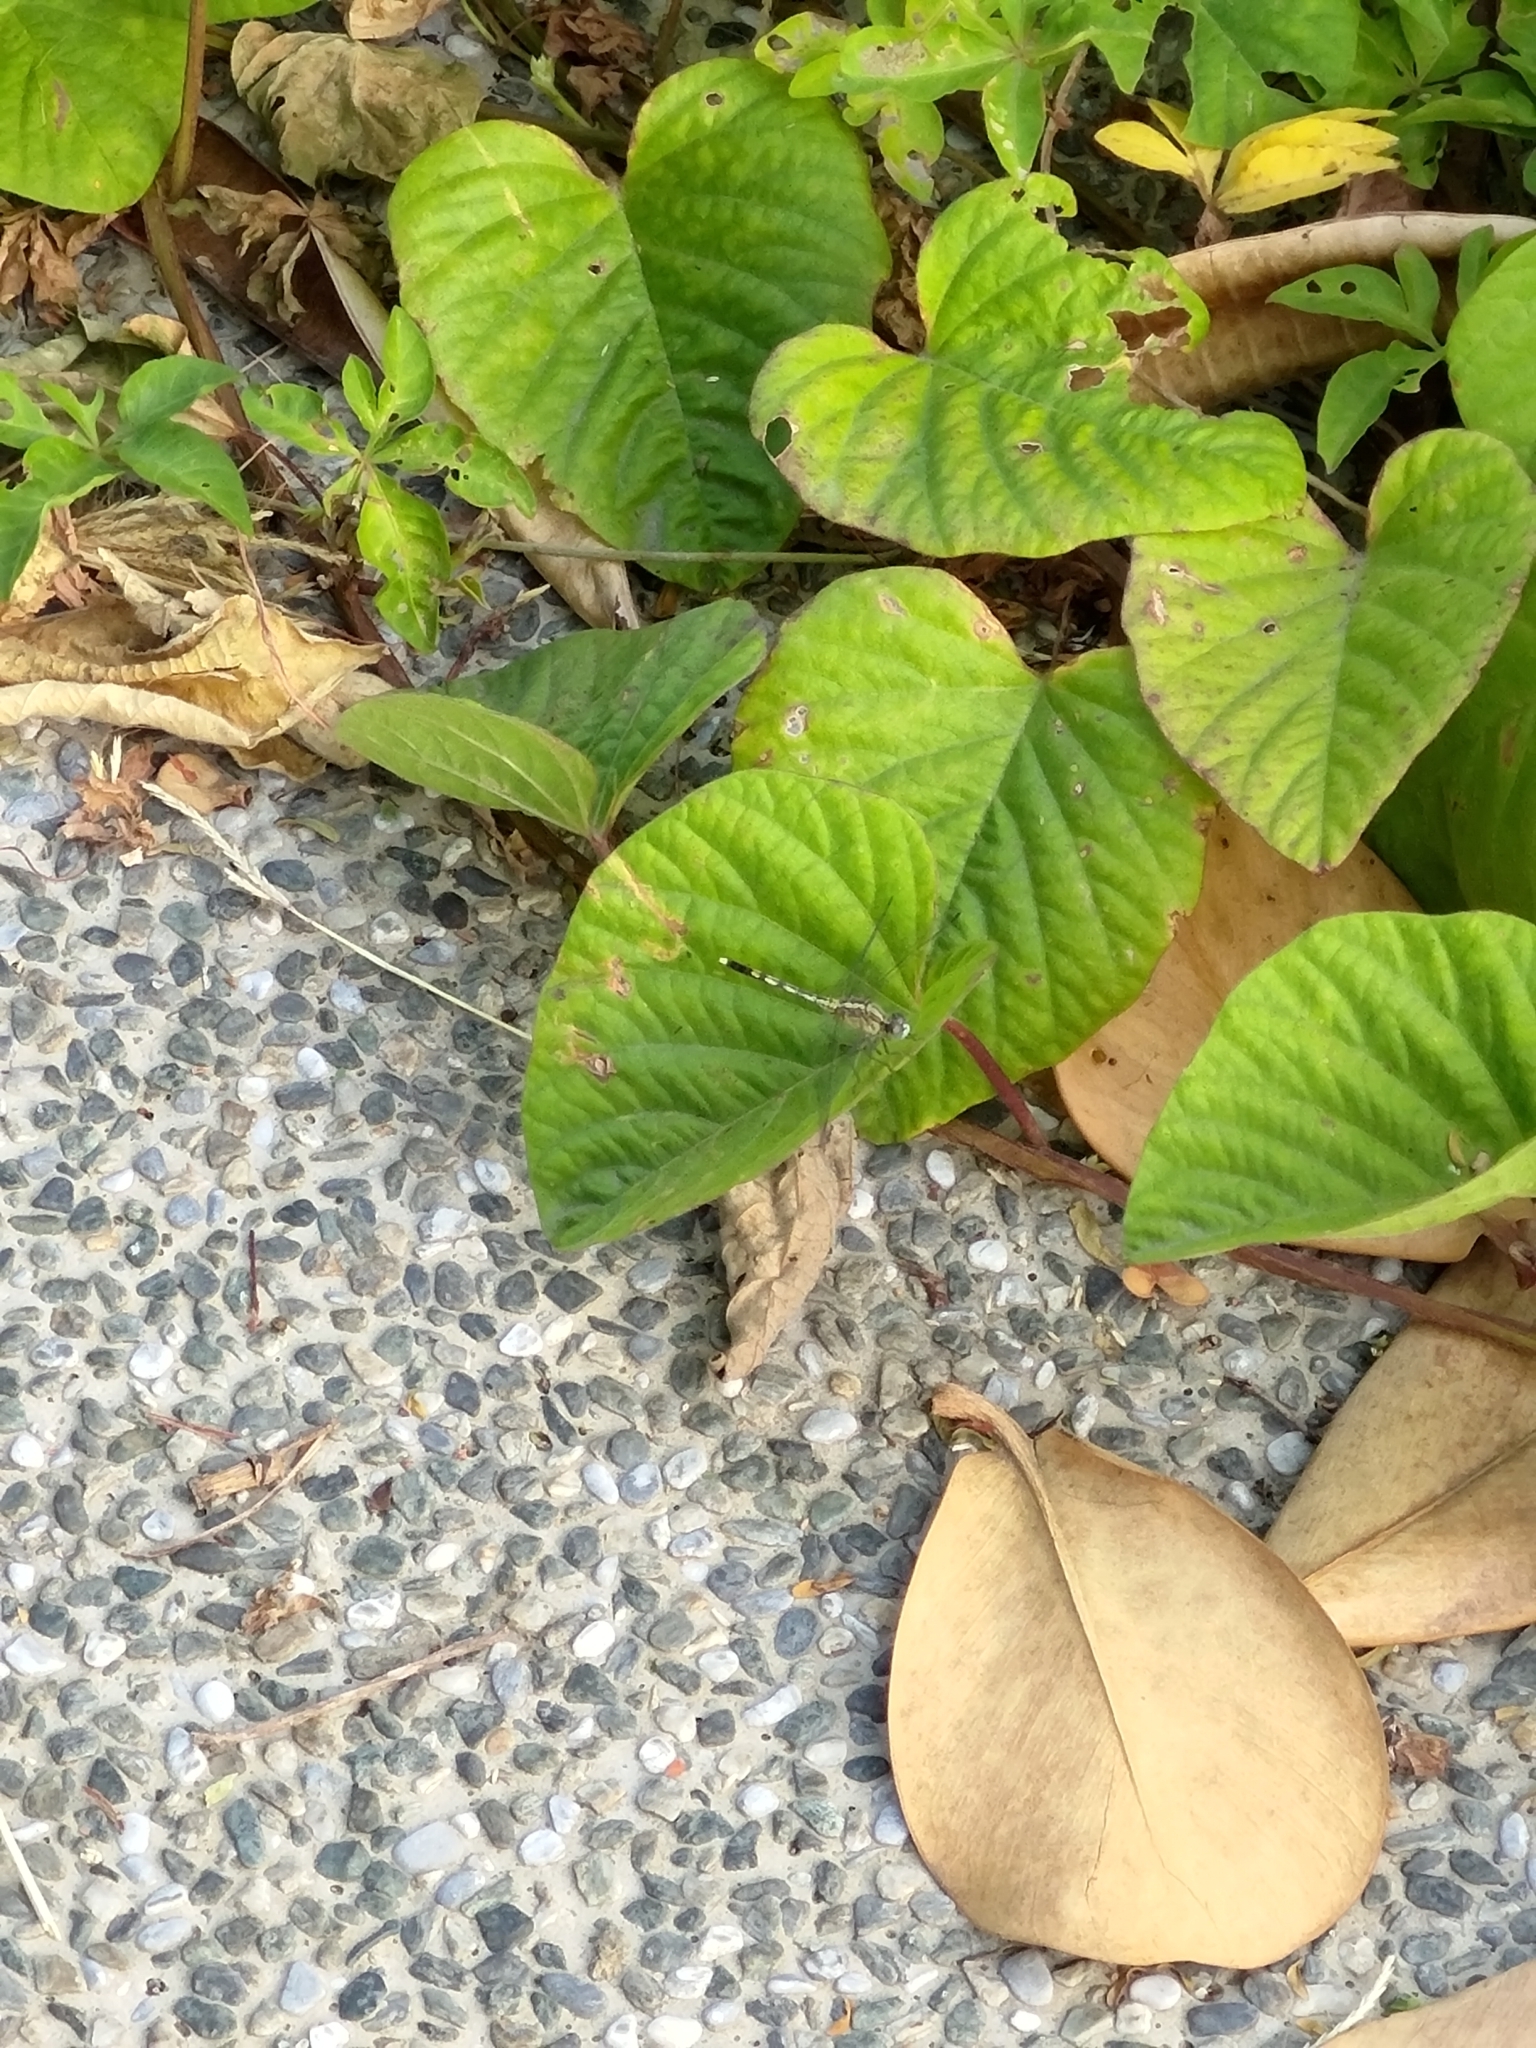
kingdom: Animalia
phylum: Arthropoda
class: Insecta
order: Odonata
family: Libellulidae
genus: Diplacodes
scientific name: Diplacodes trivialis
